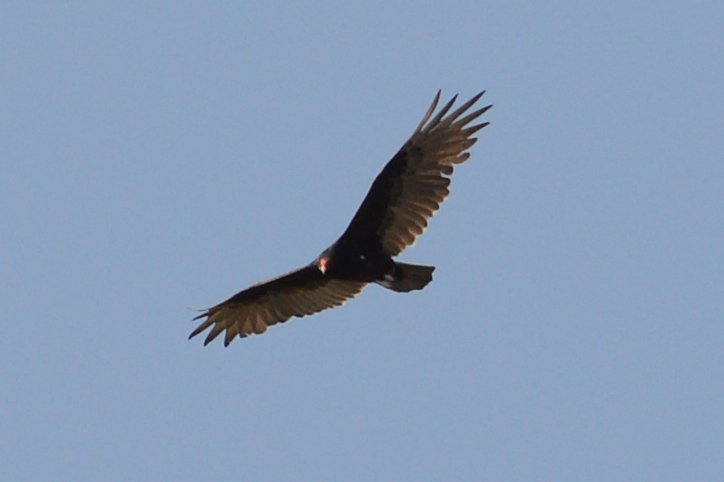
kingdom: Animalia
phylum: Chordata
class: Aves
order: Accipitriformes
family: Cathartidae
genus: Cathartes
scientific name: Cathartes aura
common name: Turkey vulture
